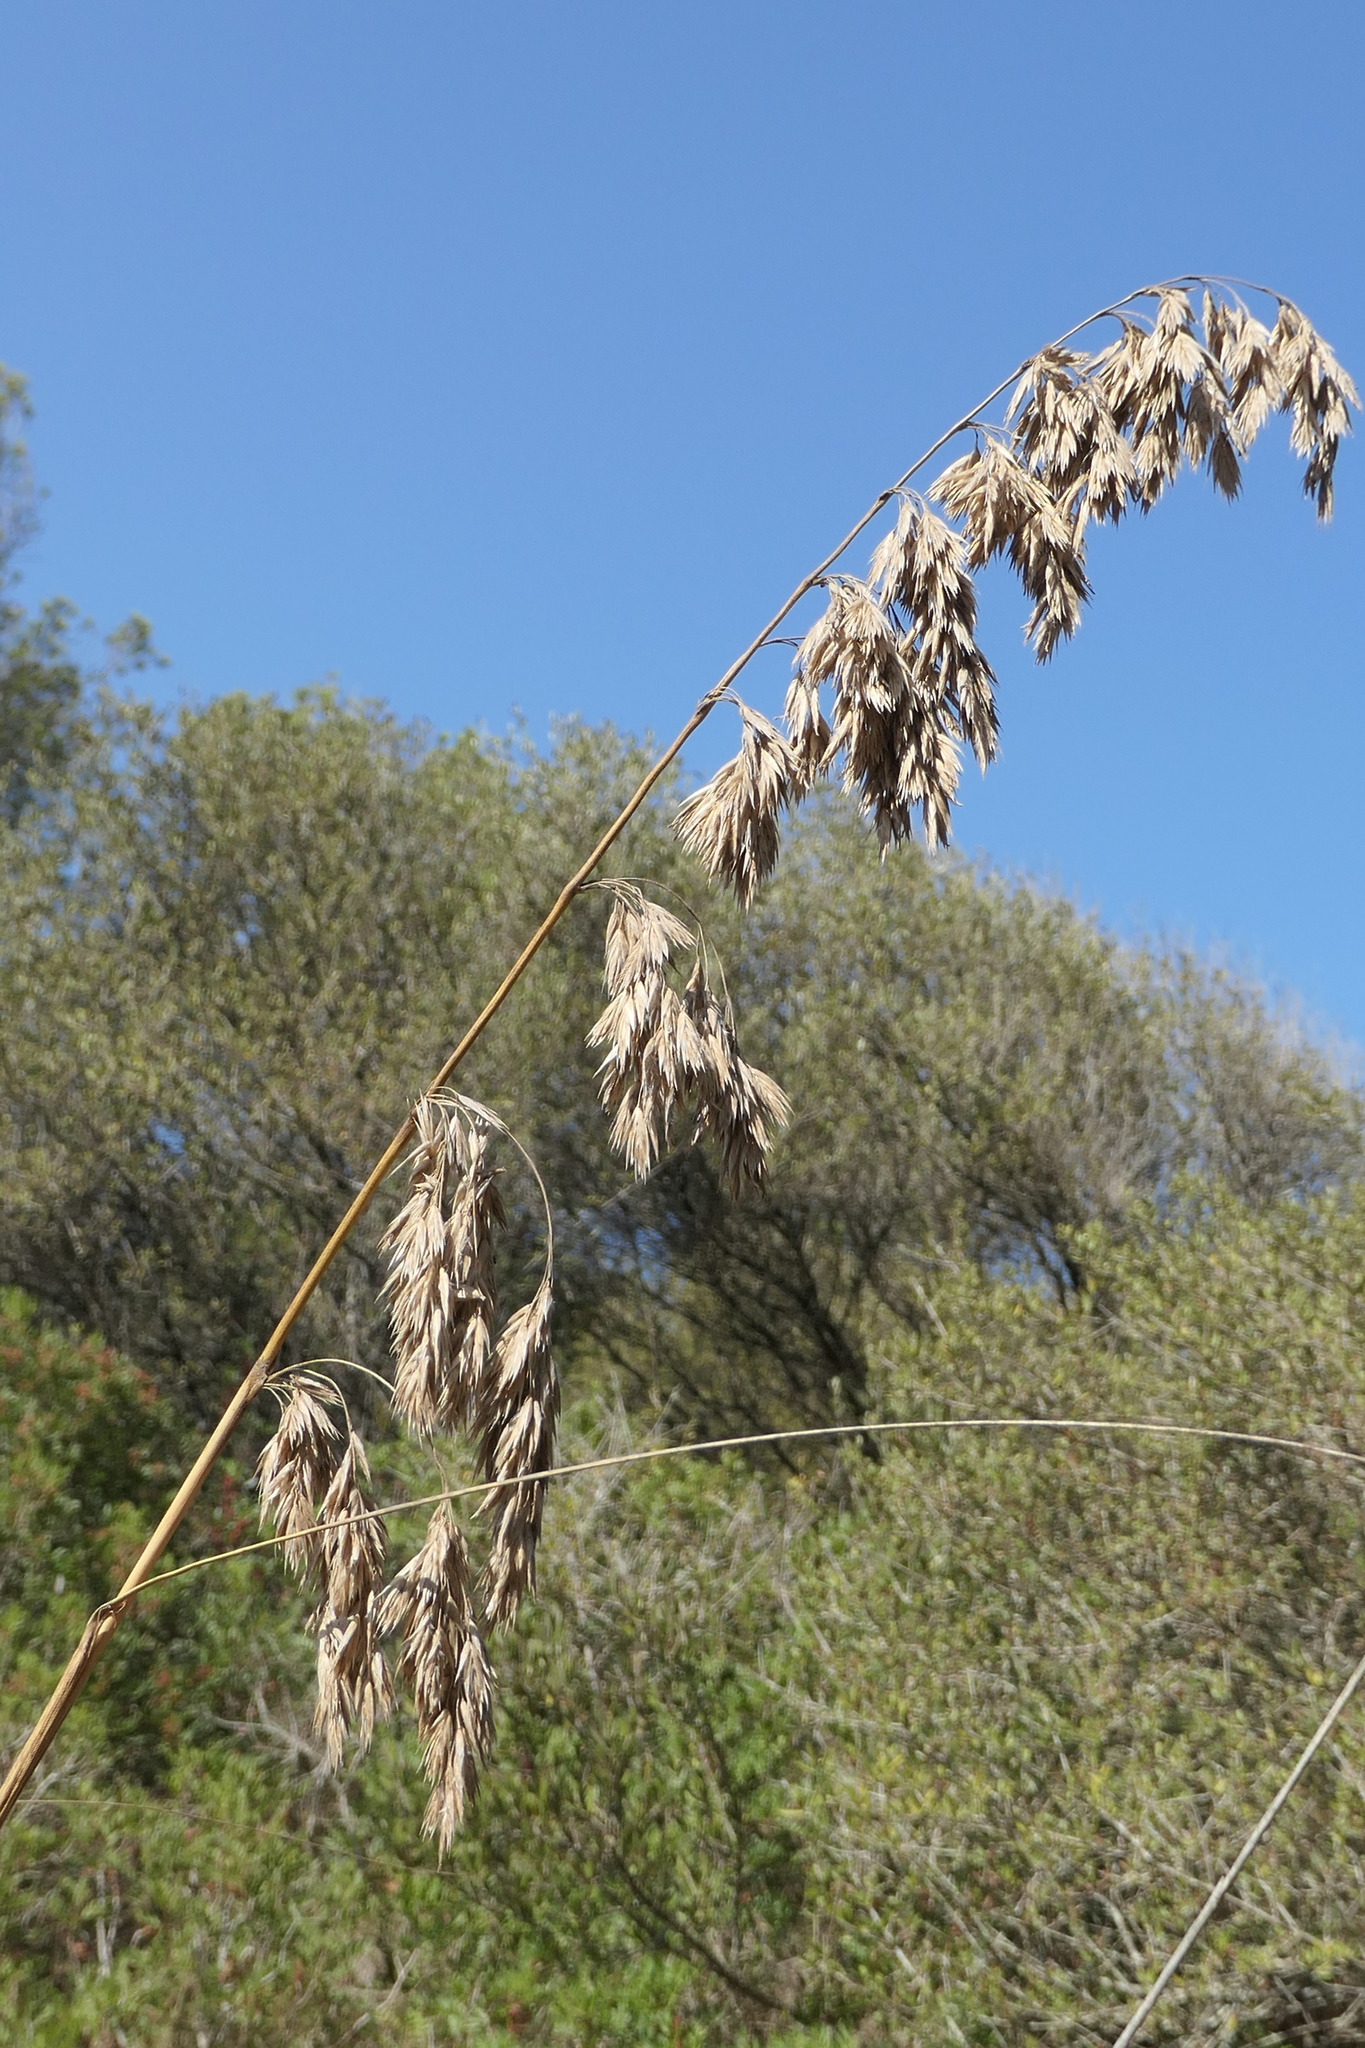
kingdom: Plantae
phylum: Tracheophyta
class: Liliopsida
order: Poales
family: Poaceae
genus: Ampelodesmos
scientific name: Ampelodesmos mauritanicus
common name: Mauritanian grass
